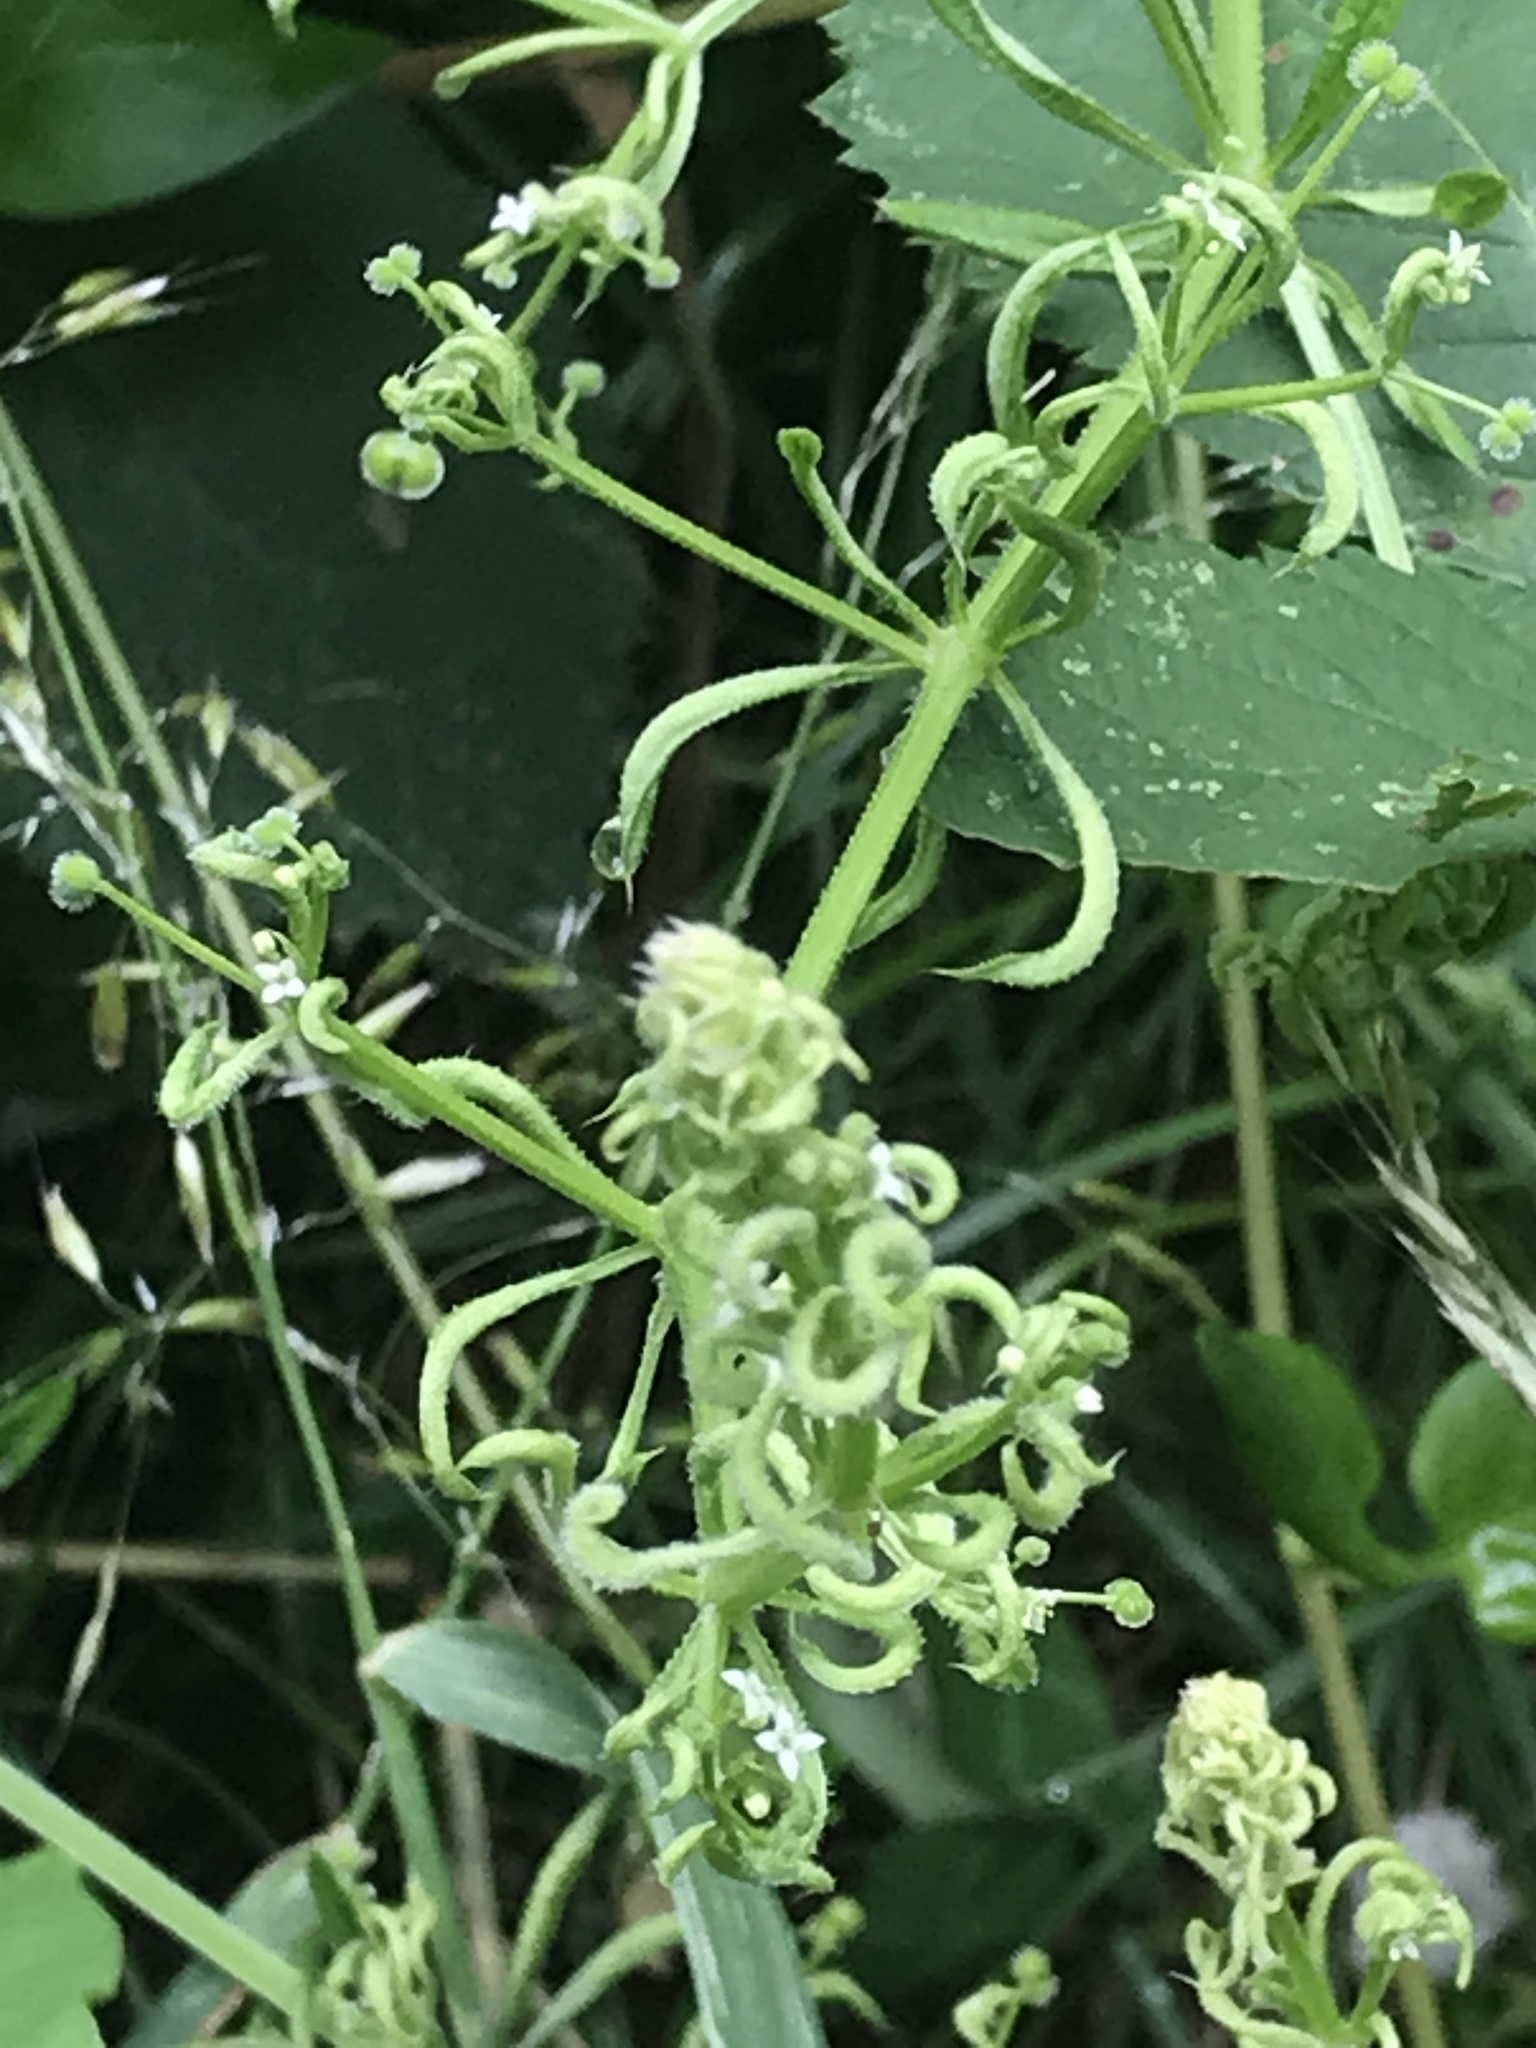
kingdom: Plantae
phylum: Tracheophyta
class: Magnoliopsida
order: Gentianales
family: Rubiaceae
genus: Galium
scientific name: Galium aparine
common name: Cleavers
